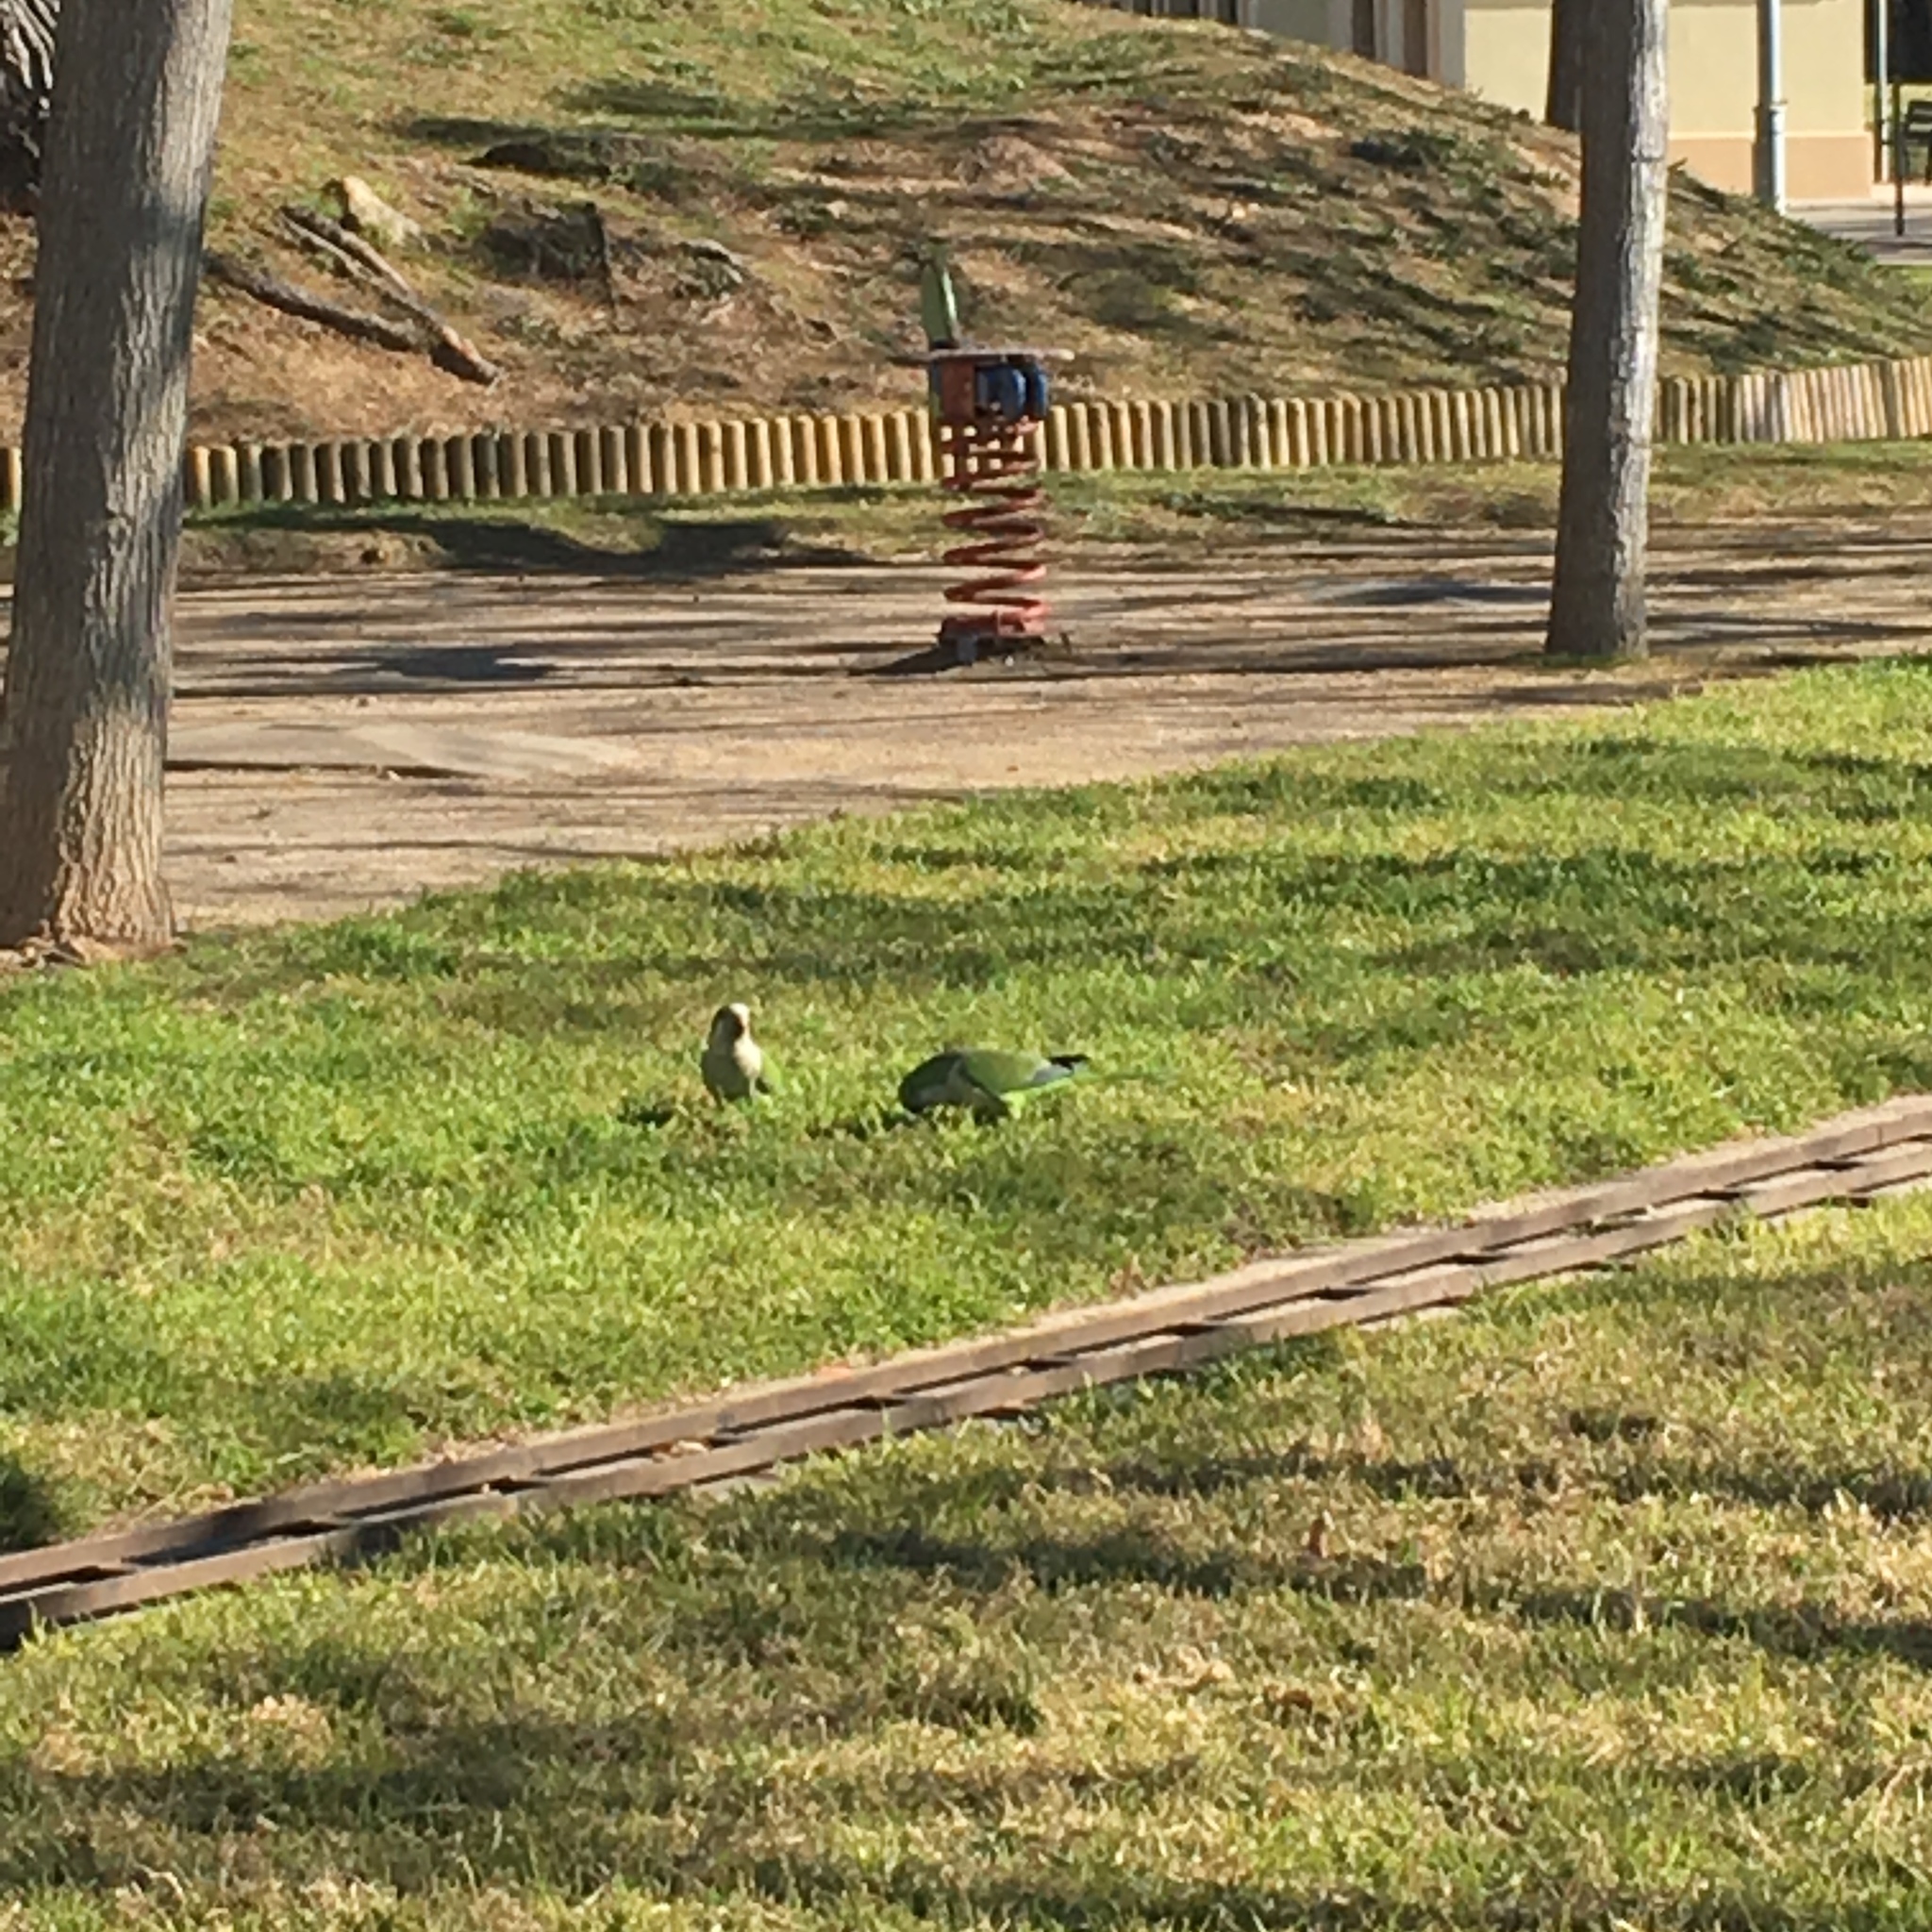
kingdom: Animalia
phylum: Chordata
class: Aves
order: Psittaciformes
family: Psittacidae
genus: Myiopsitta
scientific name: Myiopsitta monachus
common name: Monk parakeet
